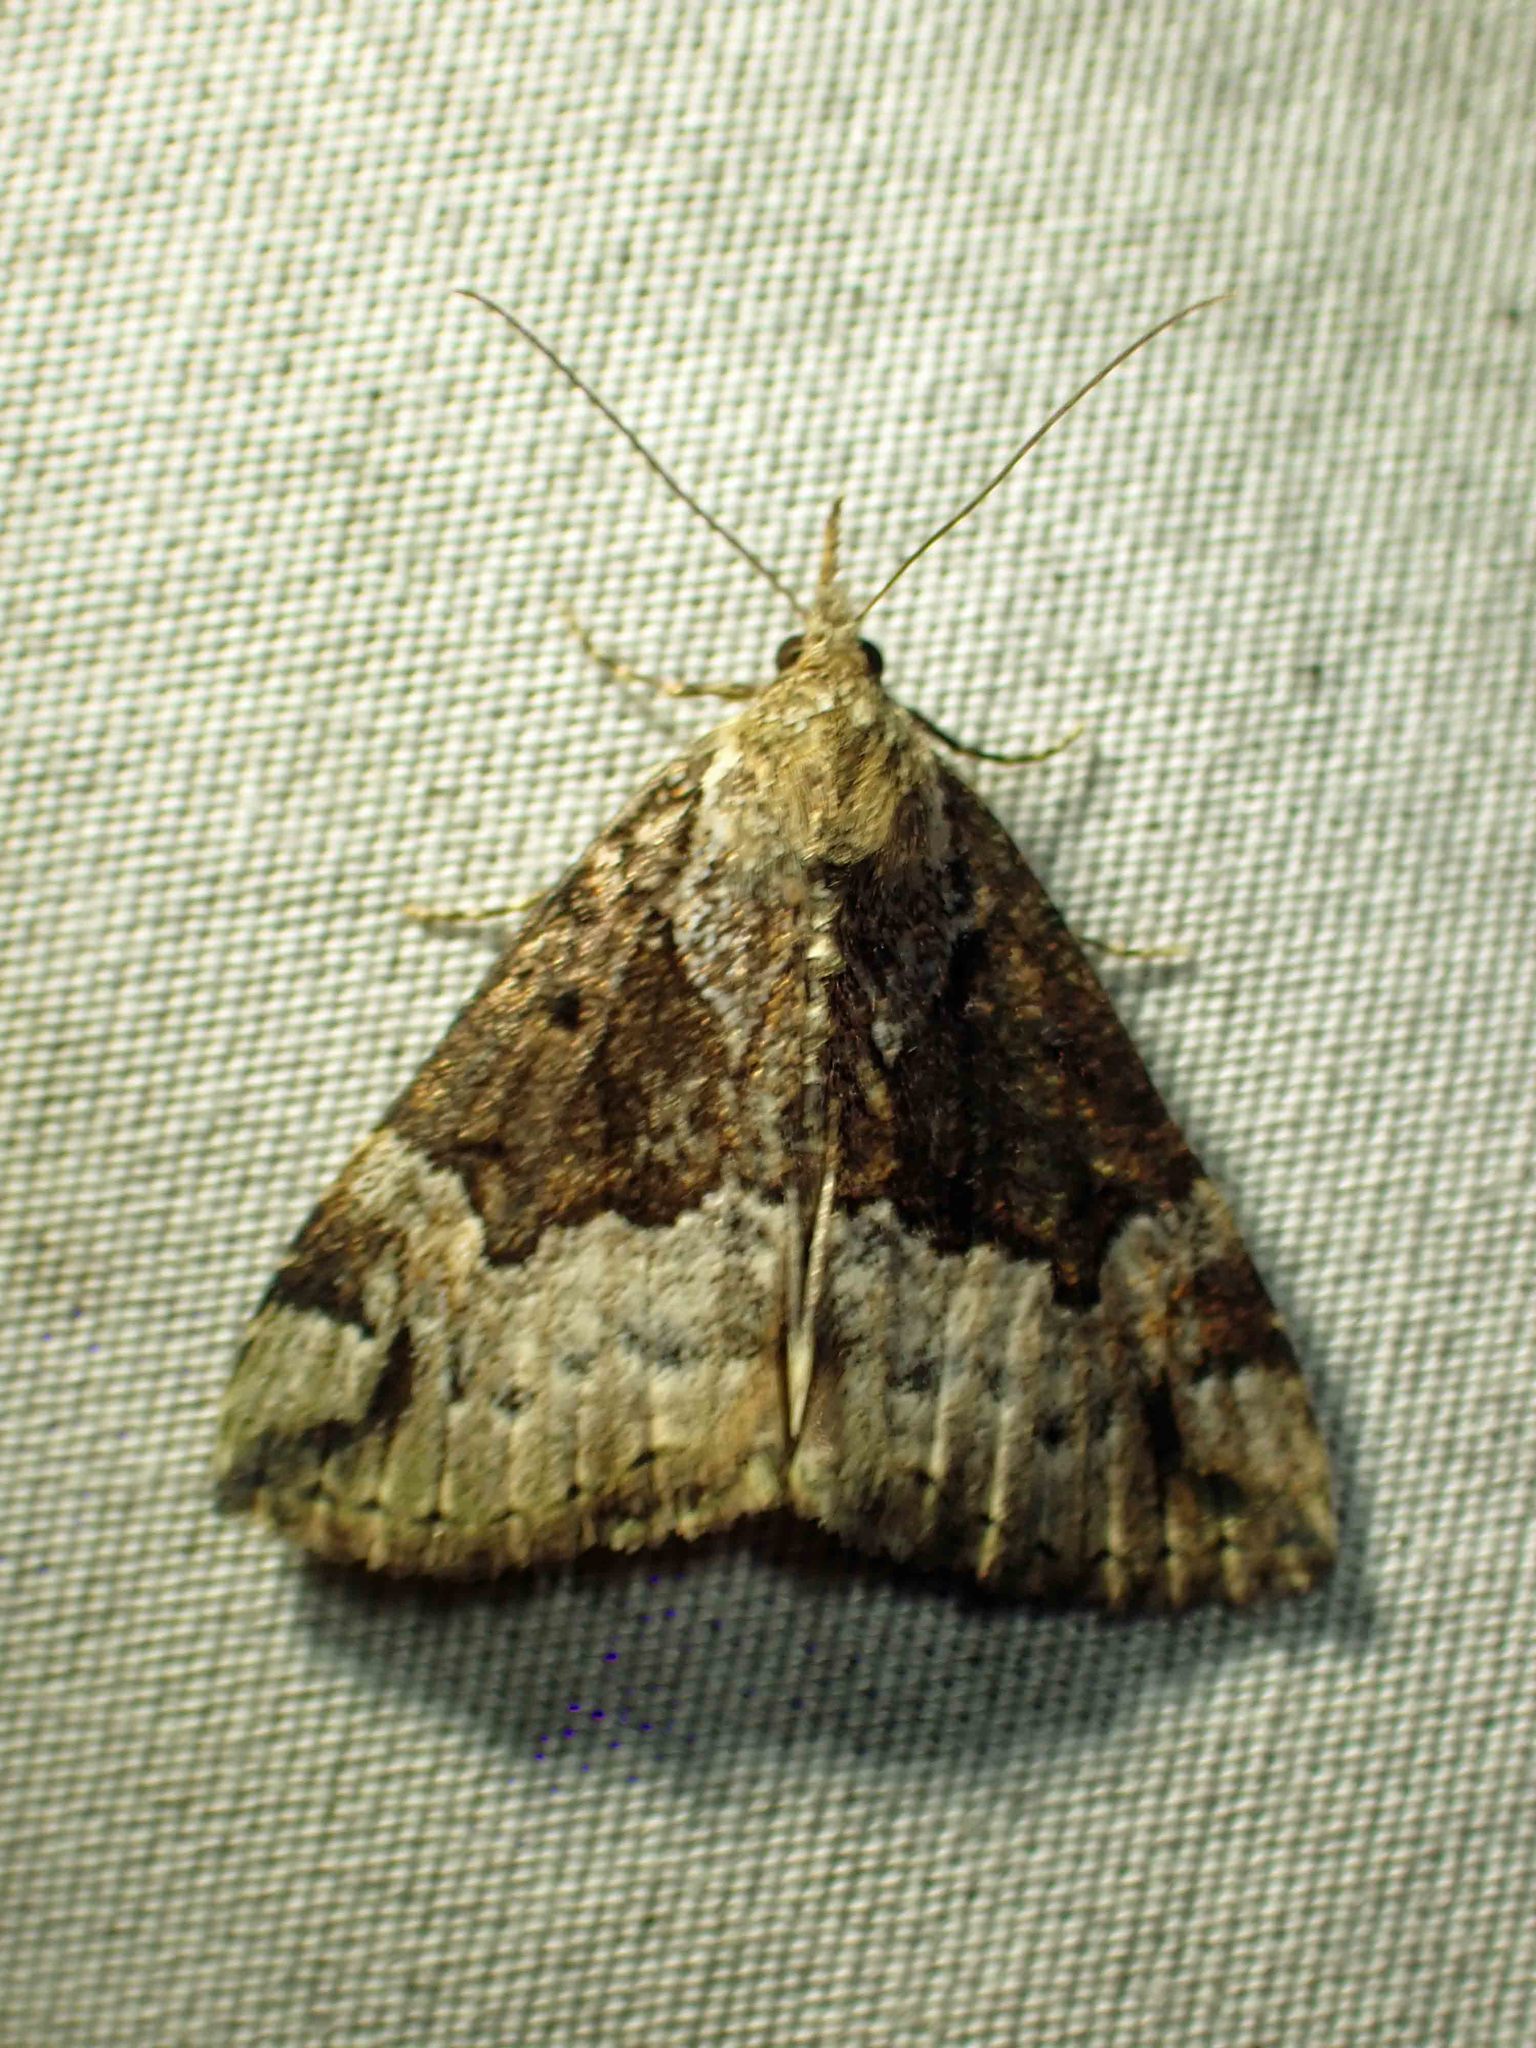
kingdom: Animalia
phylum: Arthropoda
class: Insecta
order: Lepidoptera
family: Erebidae
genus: Hypena
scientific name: Hypena palparia
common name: Mottled bomolocha moth
